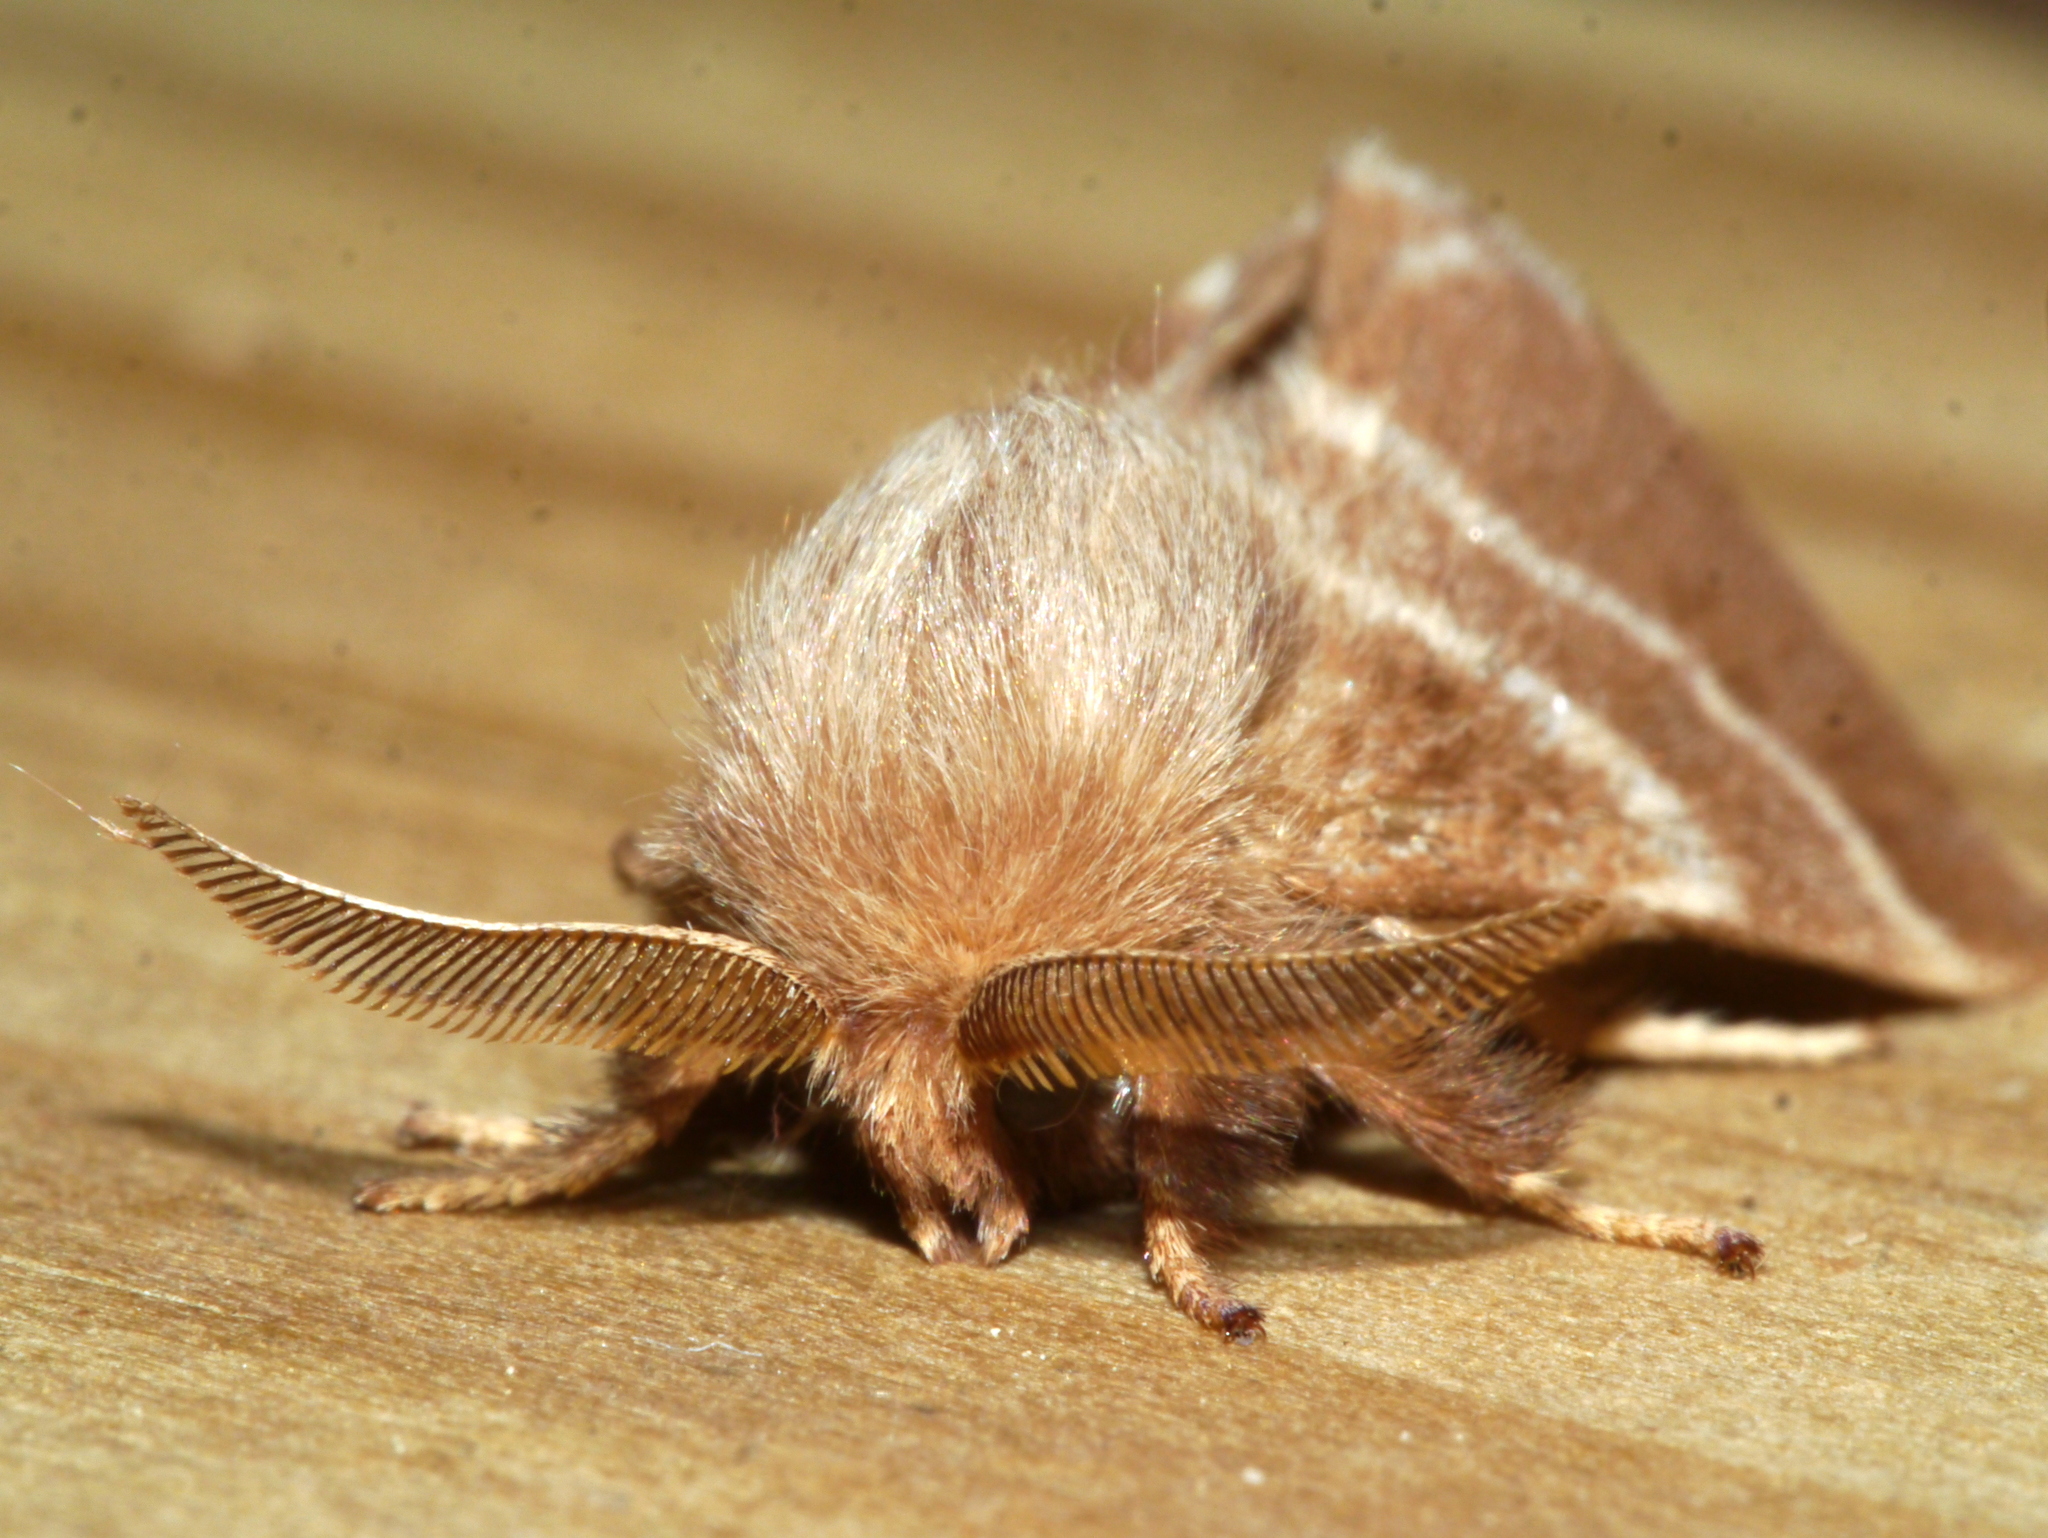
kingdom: Animalia
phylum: Arthropoda
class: Insecta
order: Lepidoptera
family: Lasiocampidae
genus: Malacosoma
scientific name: Malacosoma americana
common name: Eastern tent caterpillar moth
